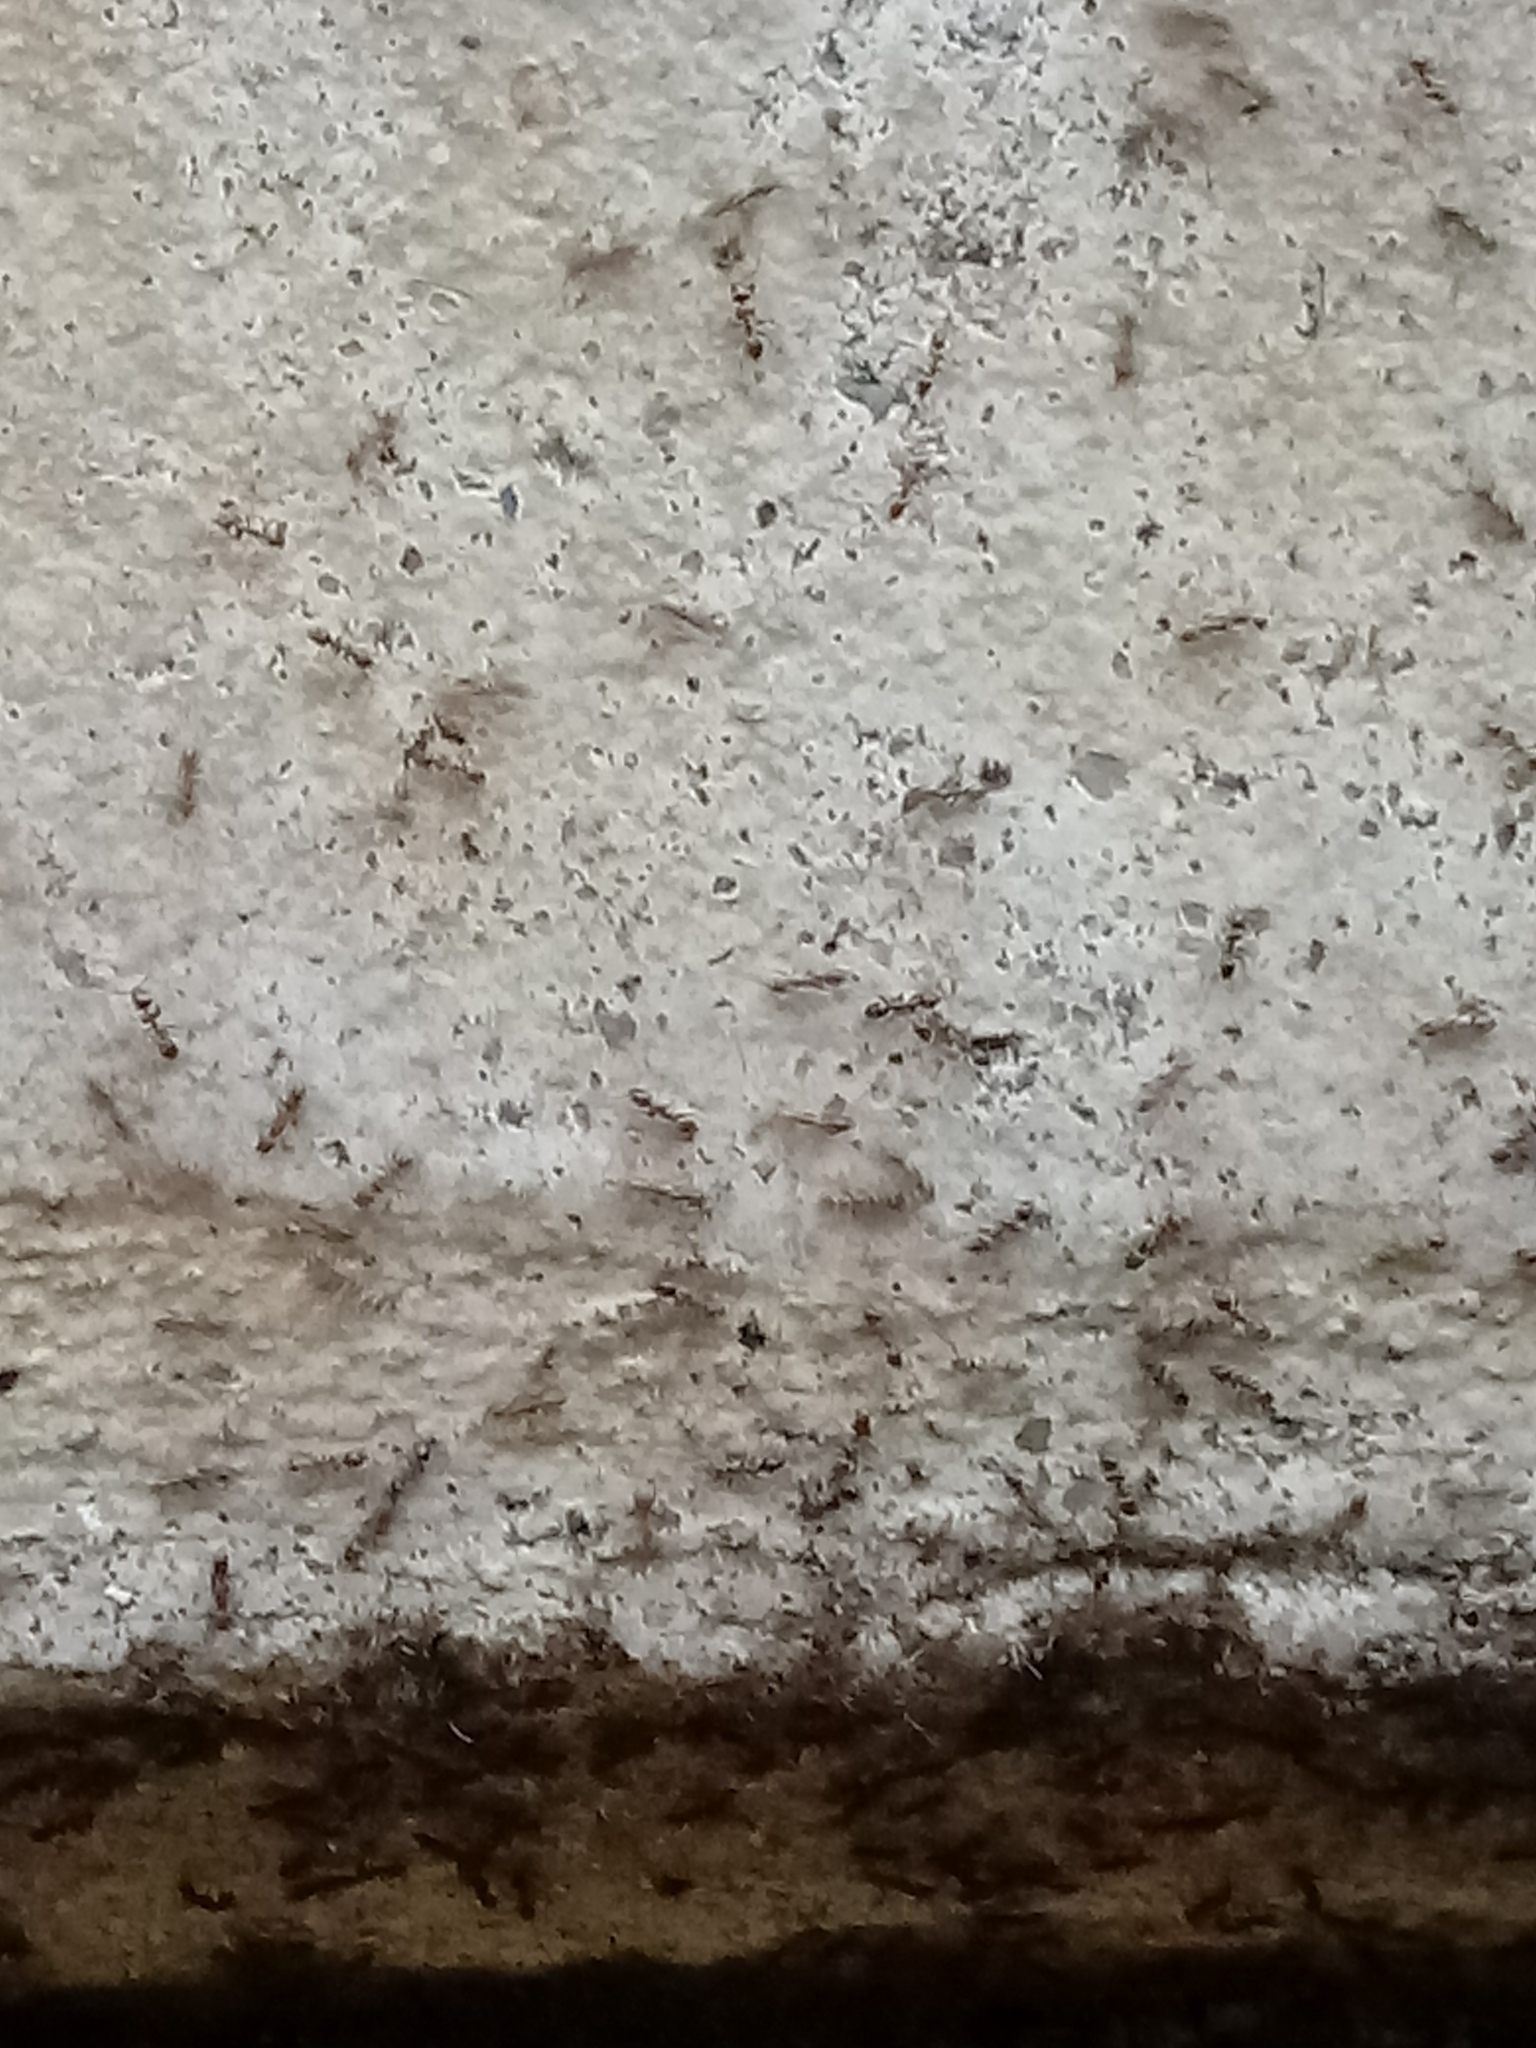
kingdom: Animalia
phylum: Arthropoda
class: Insecta
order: Hymenoptera
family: Formicidae
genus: Linepithema
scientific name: Linepithema humile
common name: Argentine ant
